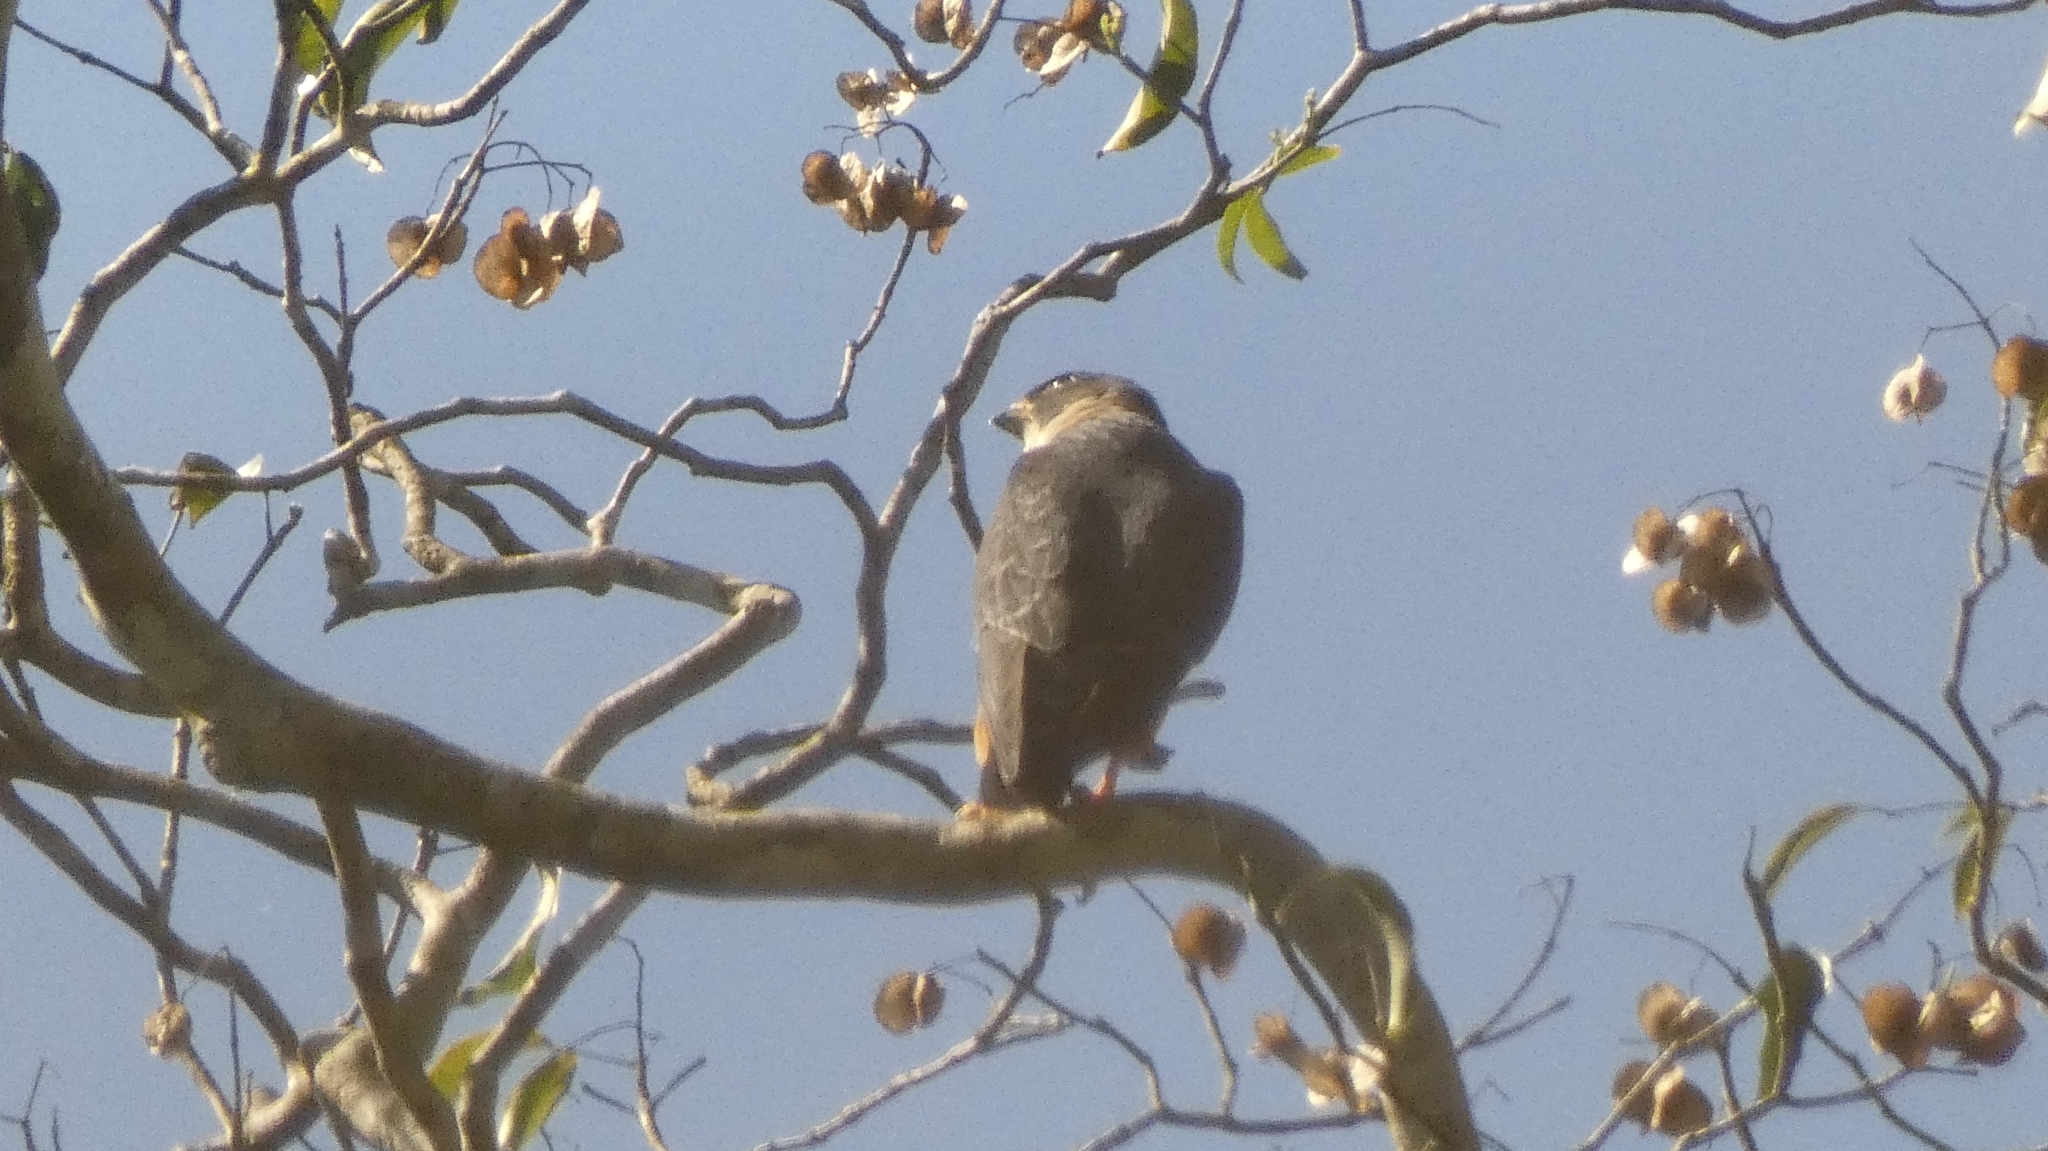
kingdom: Animalia
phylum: Chordata
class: Aves
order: Falconiformes
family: Falconidae
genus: Falco
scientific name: Falco rufigularis
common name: Bat falcon
